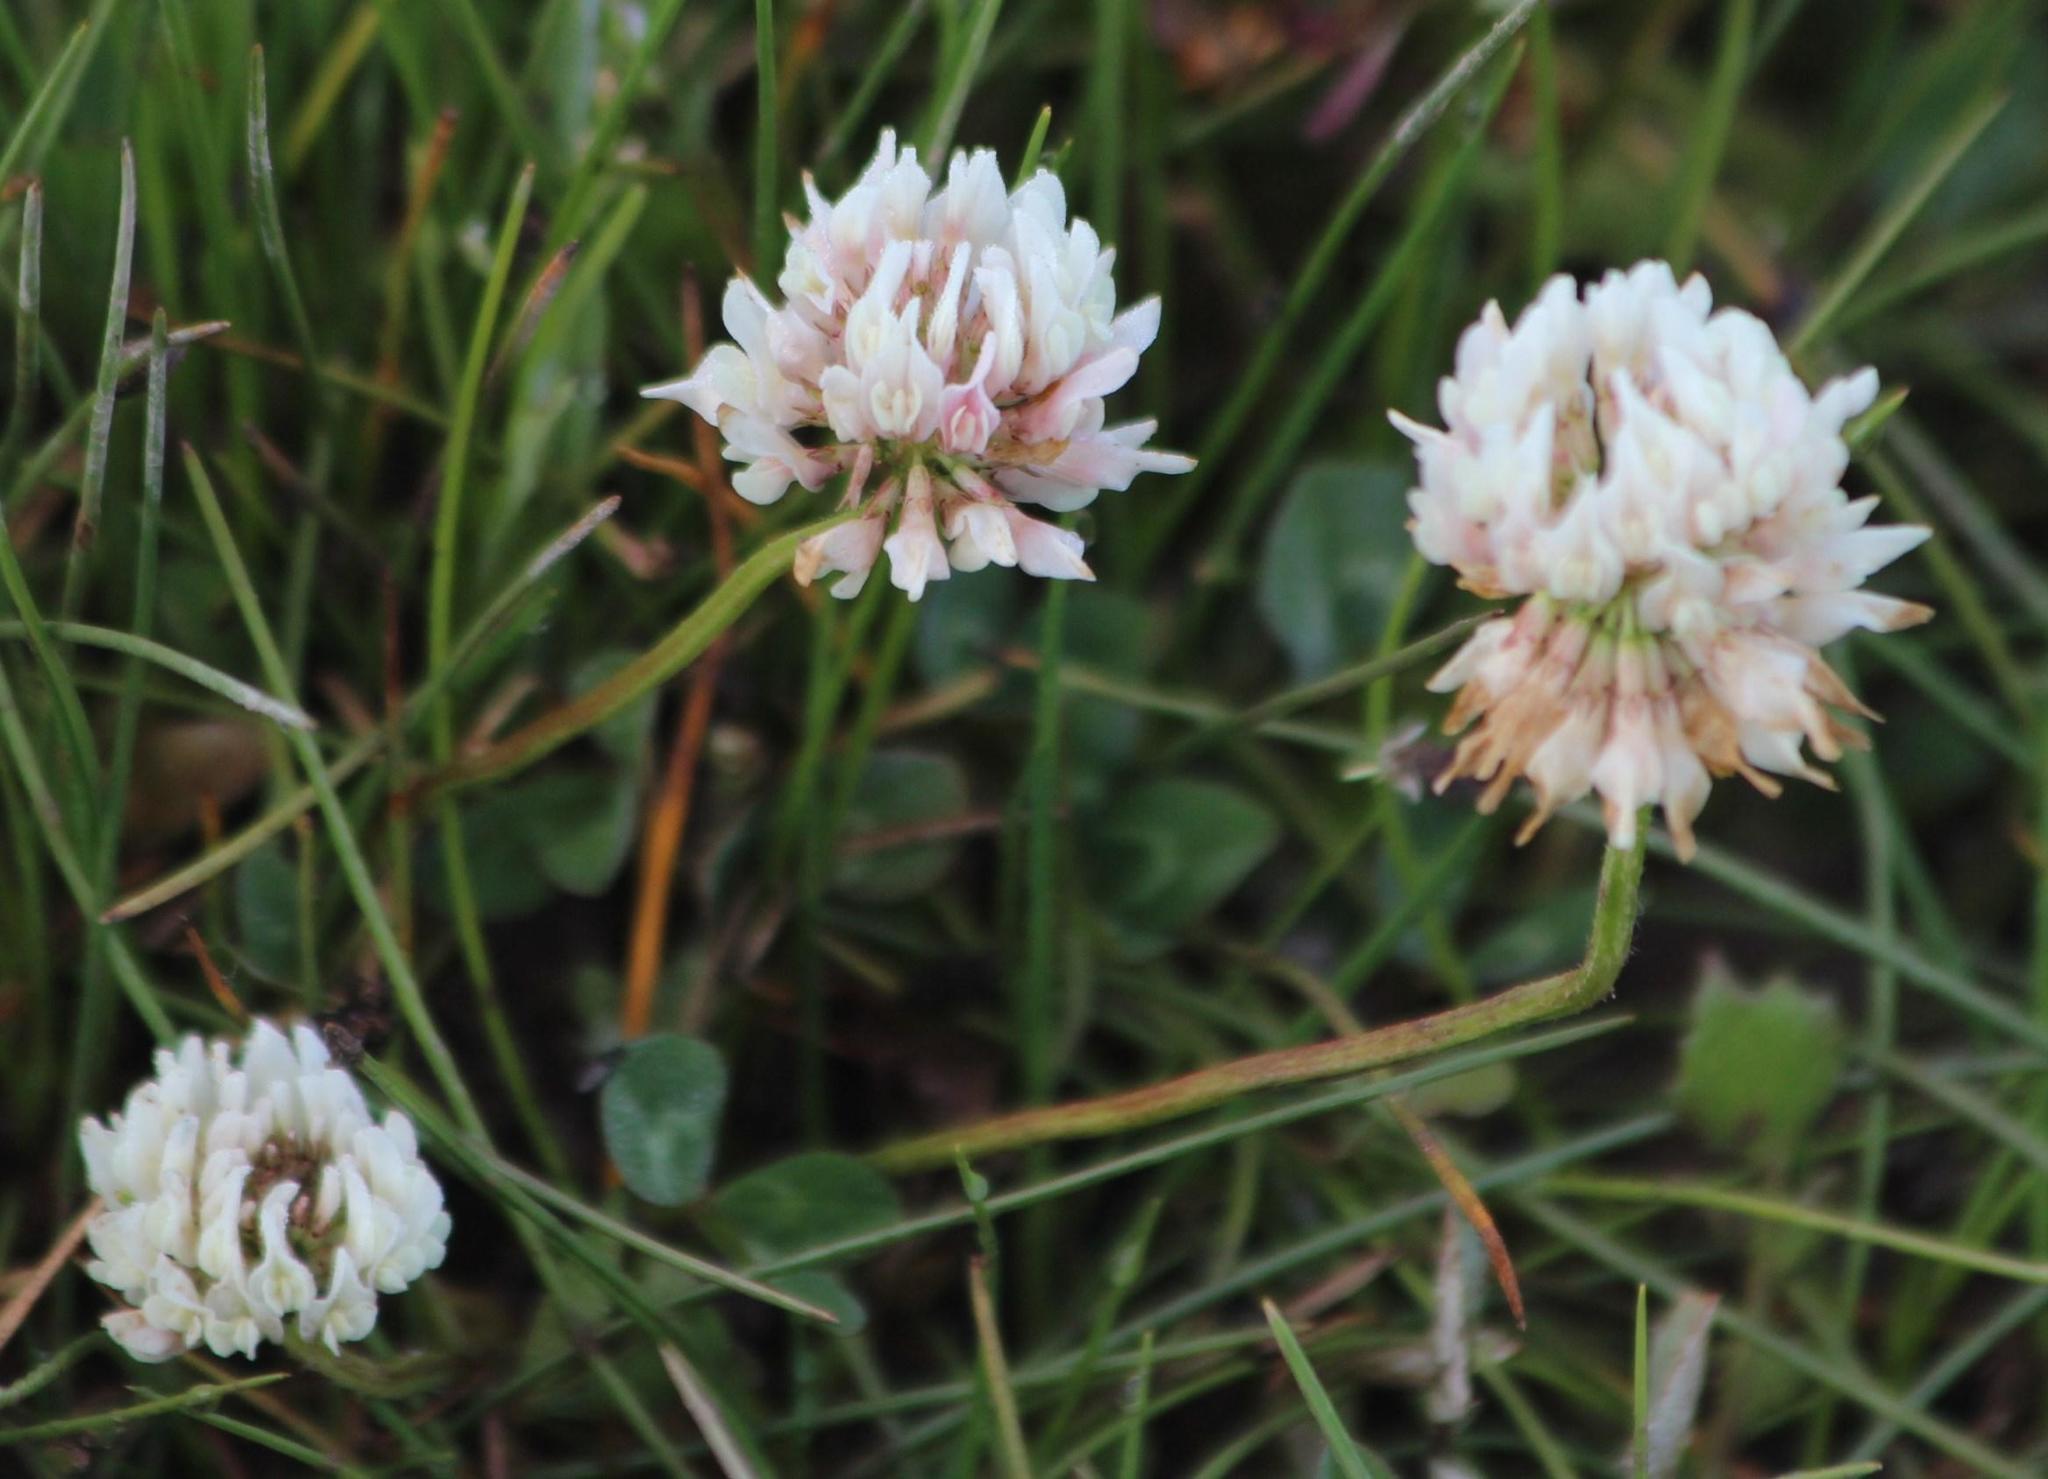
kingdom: Plantae
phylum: Tracheophyta
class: Magnoliopsida
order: Fabales
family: Fabaceae
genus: Trifolium
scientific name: Trifolium repens
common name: White clover
